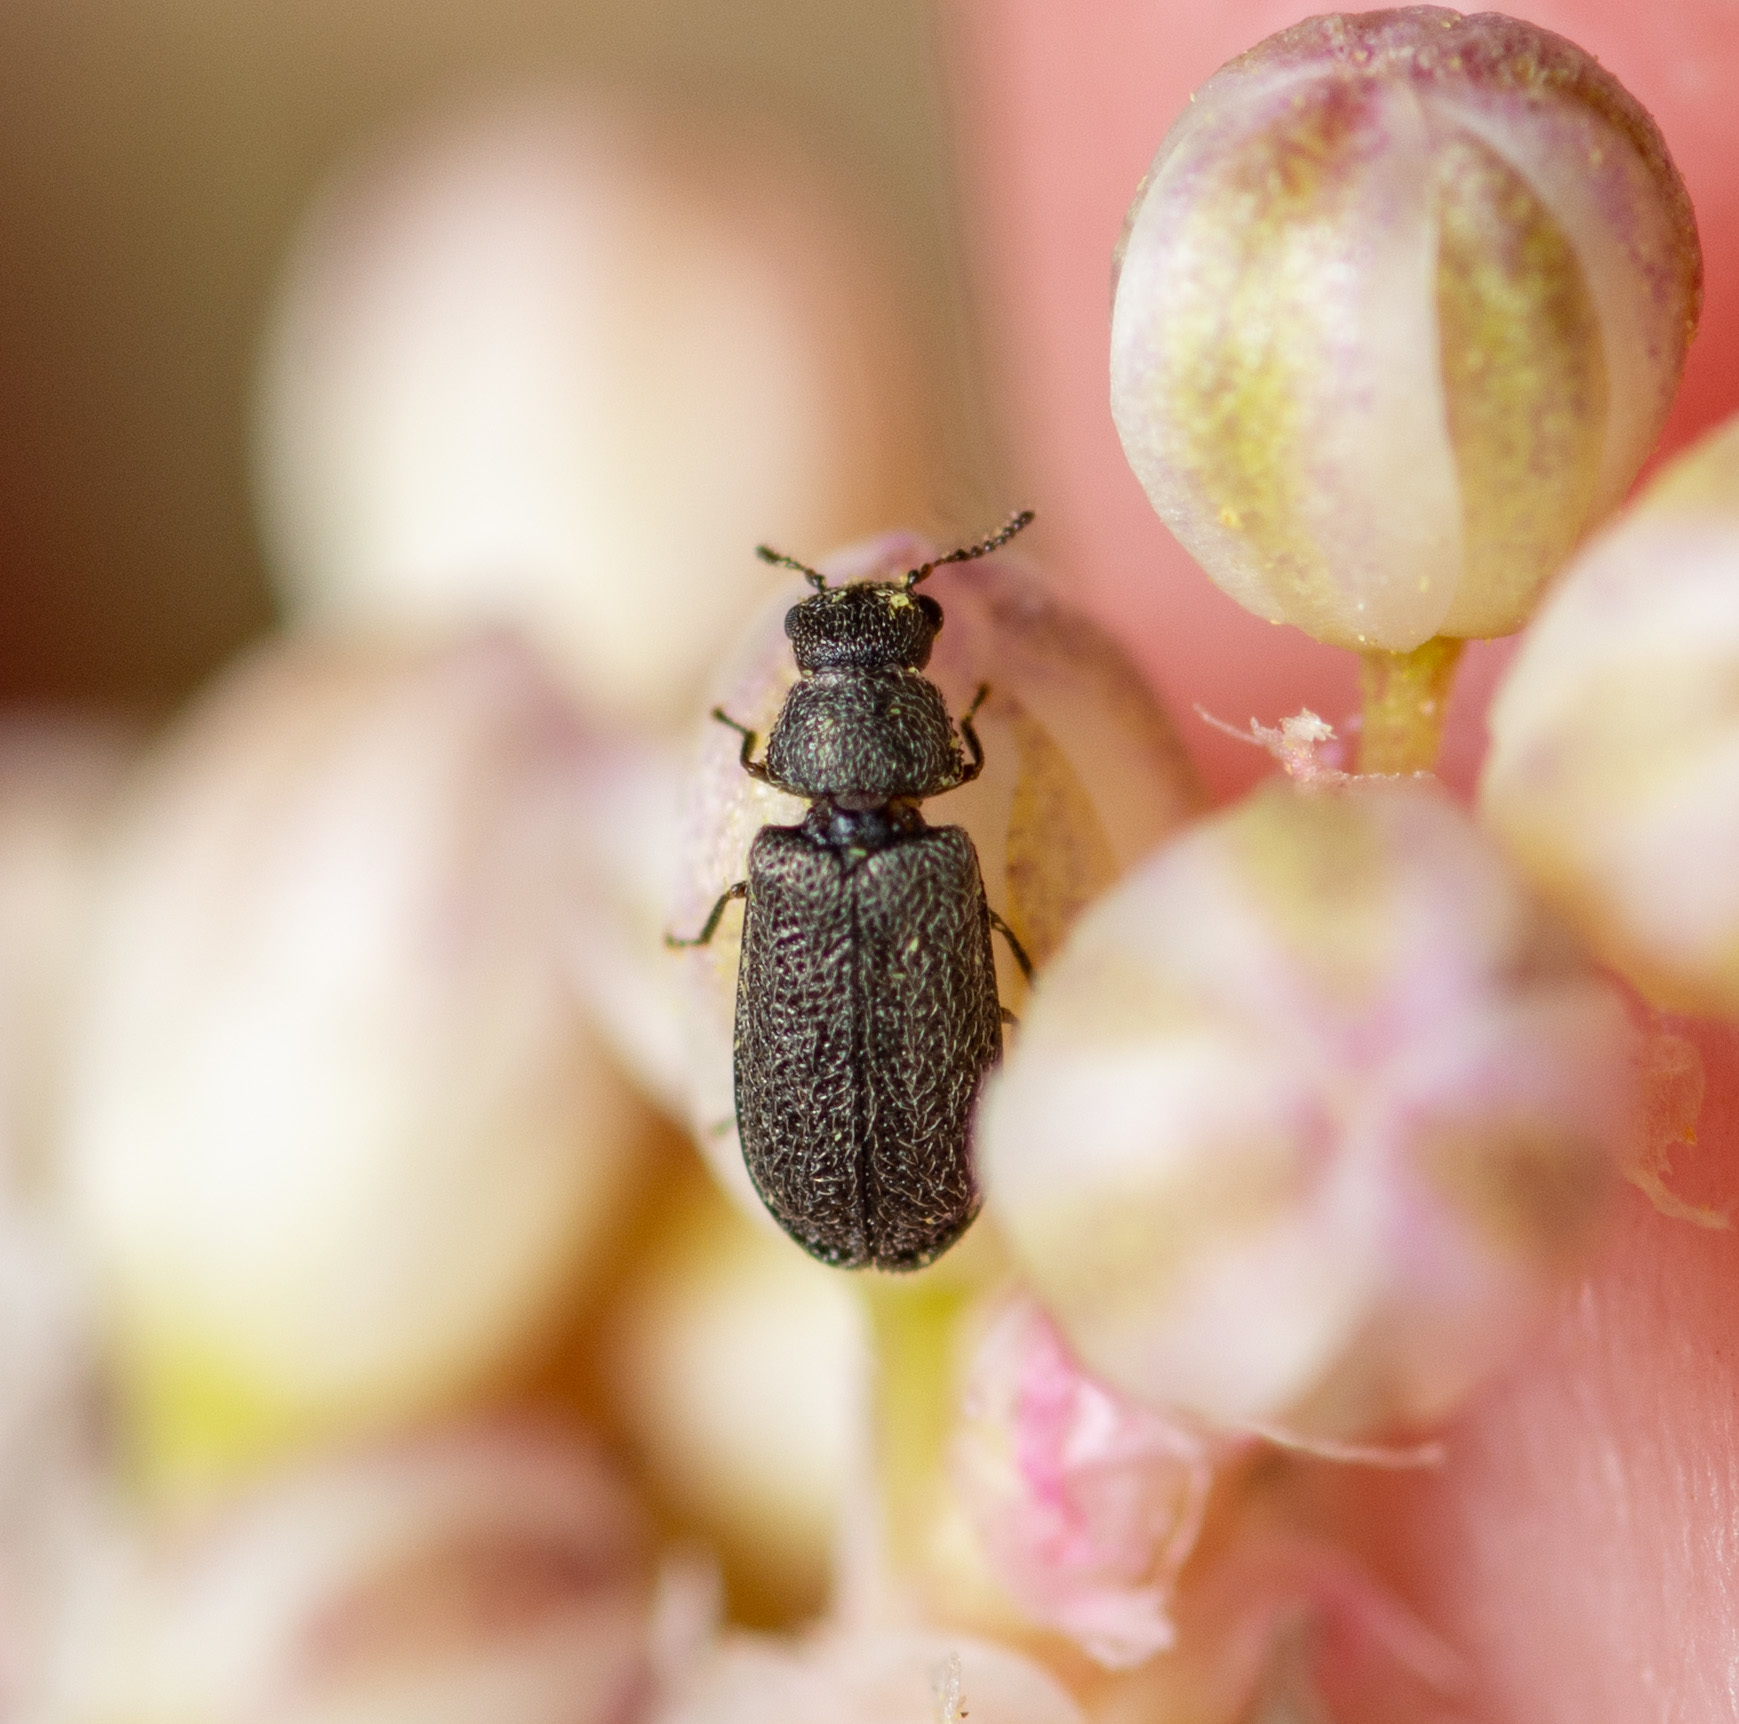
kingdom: Animalia
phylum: Arthropoda
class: Insecta
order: Coleoptera
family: Melyridae
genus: Melyrodes
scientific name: Melyrodes
